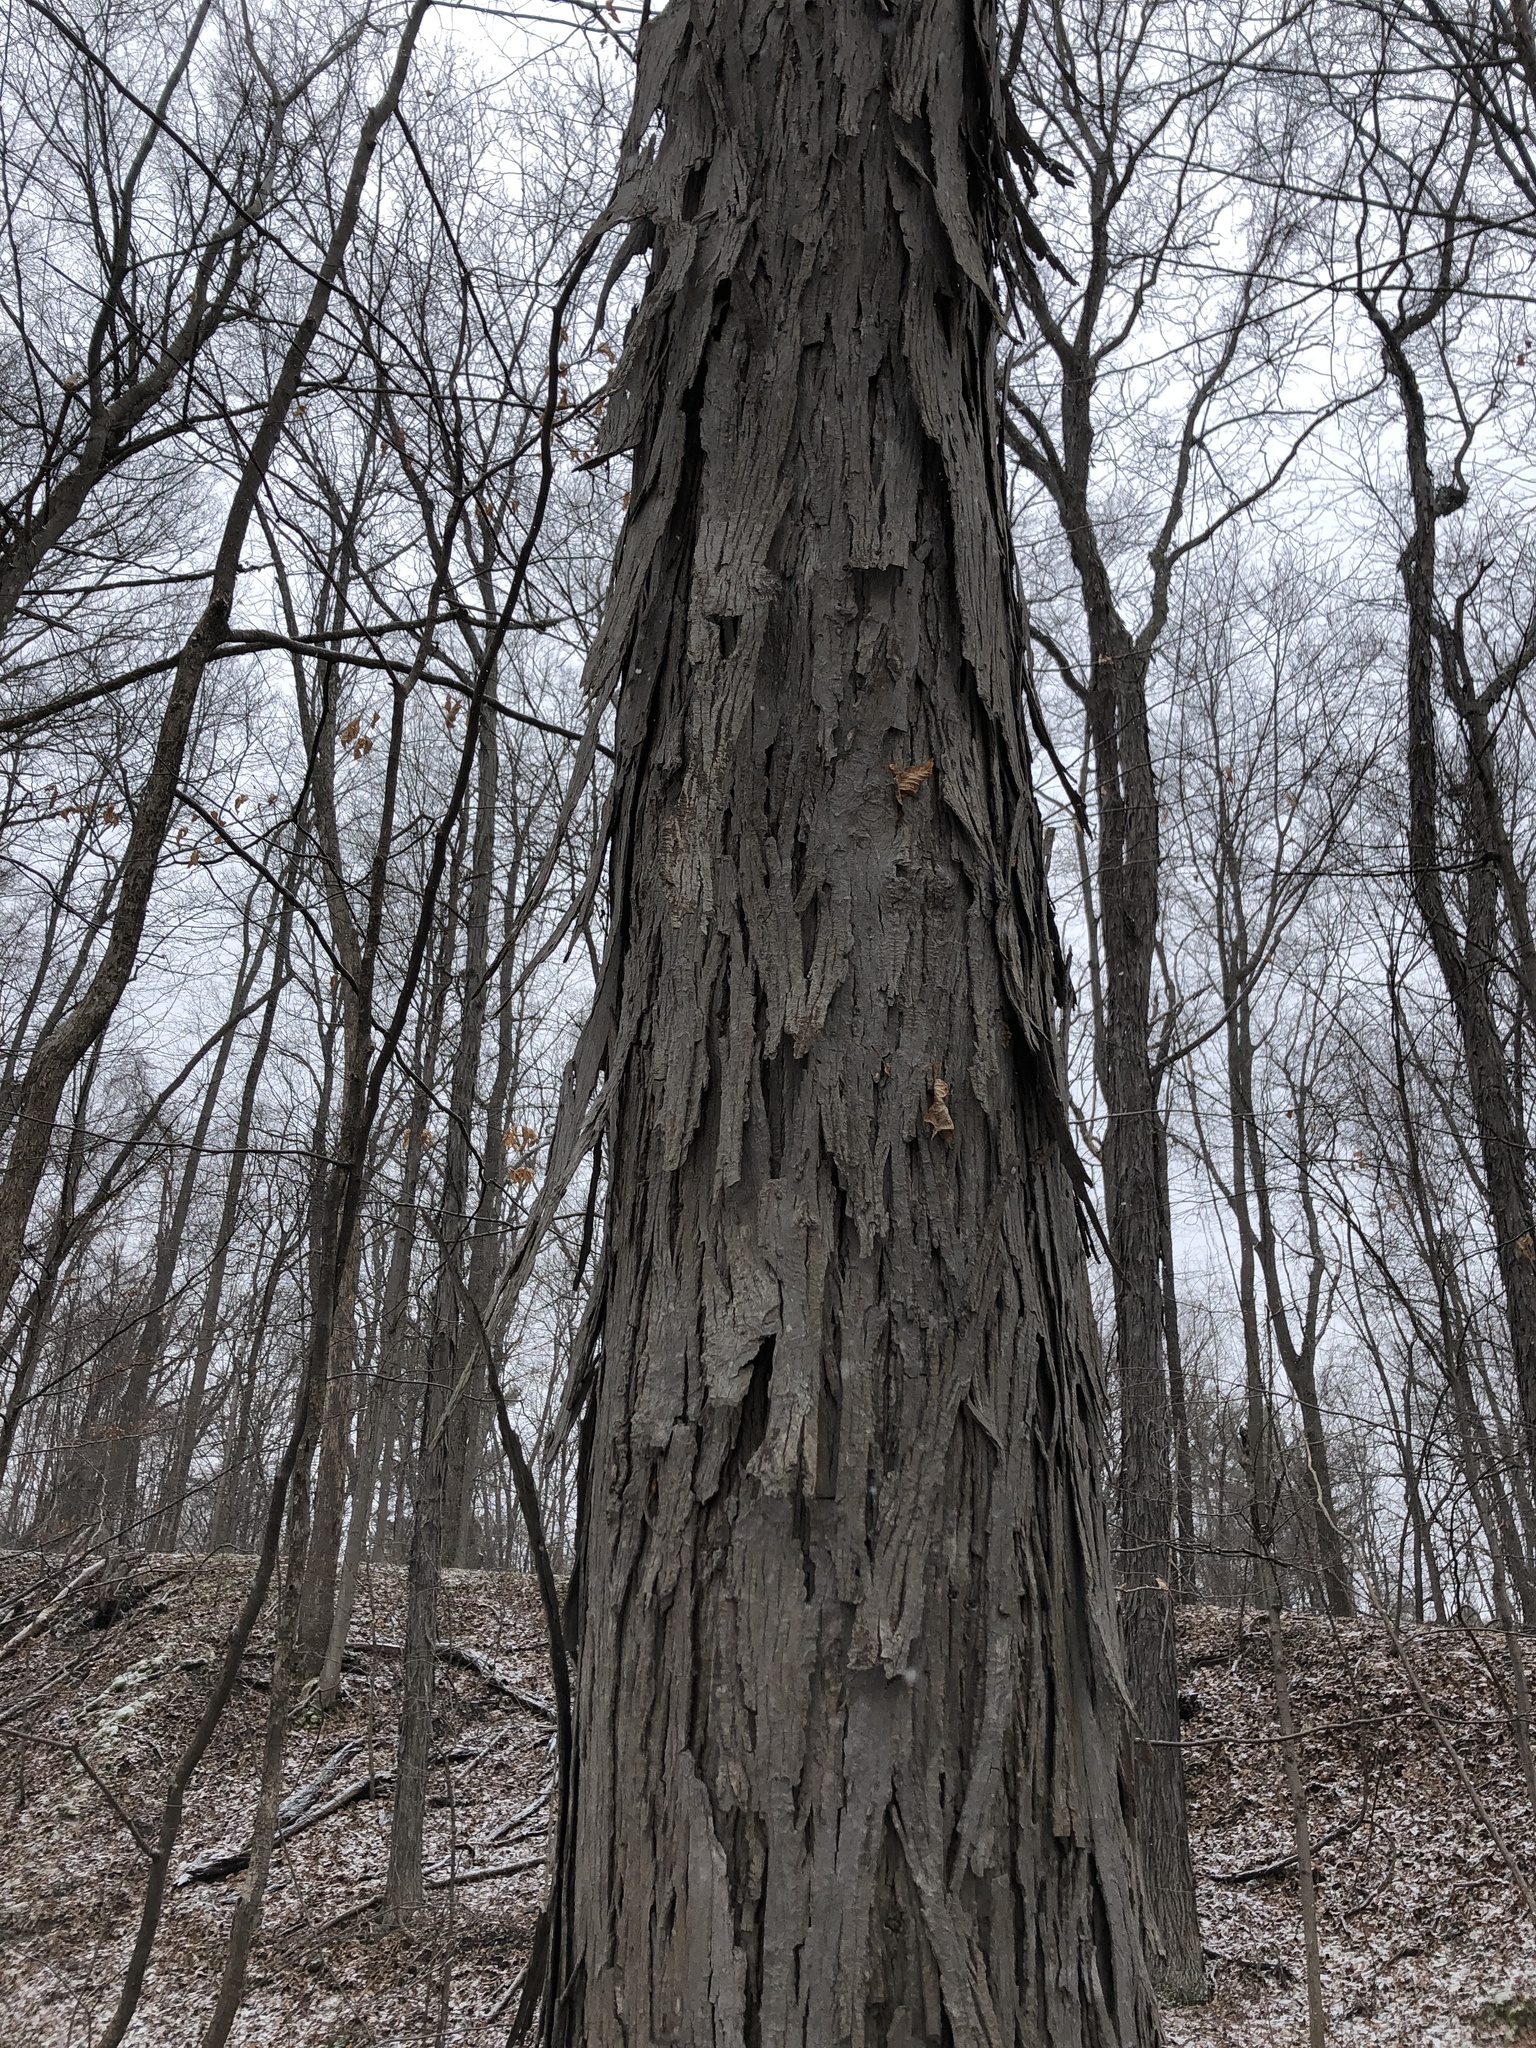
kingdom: Plantae
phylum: Tracheophyta
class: Magnoliopsida
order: Fagales
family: Juglandaceae
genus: Carya
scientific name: Carya ovata
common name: Shagbark hickory
